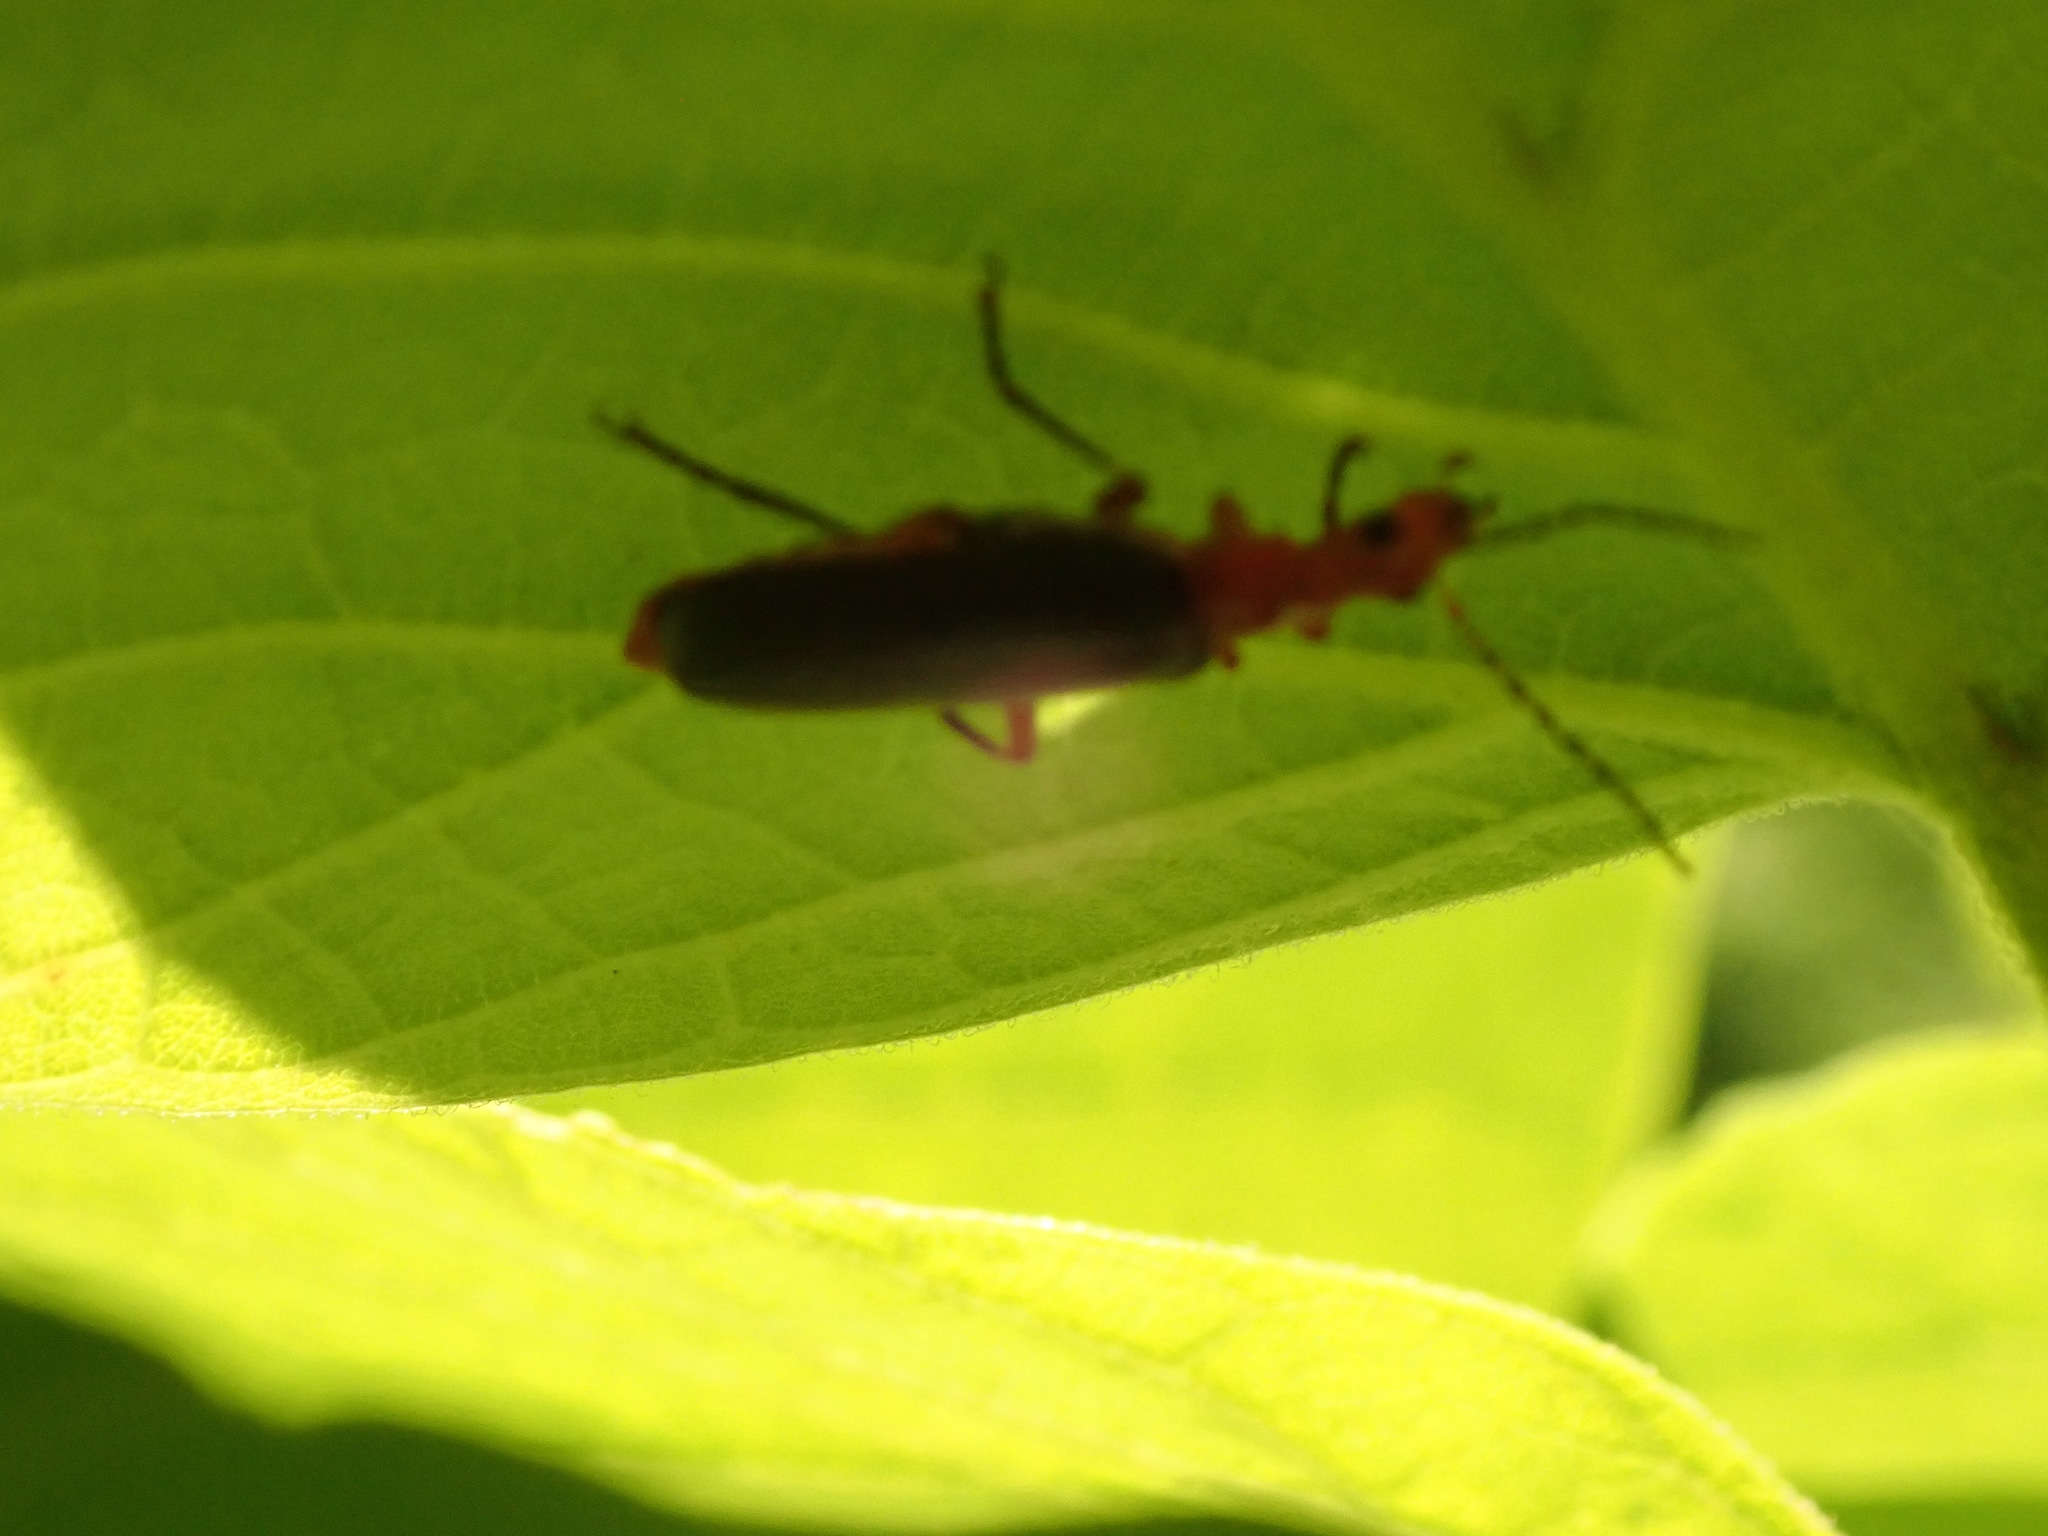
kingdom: Animalia
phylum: Arthropoda
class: Insecta
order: Coleoptera
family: Cantharidae
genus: Podabrus
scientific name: Podabrus tomentosus
